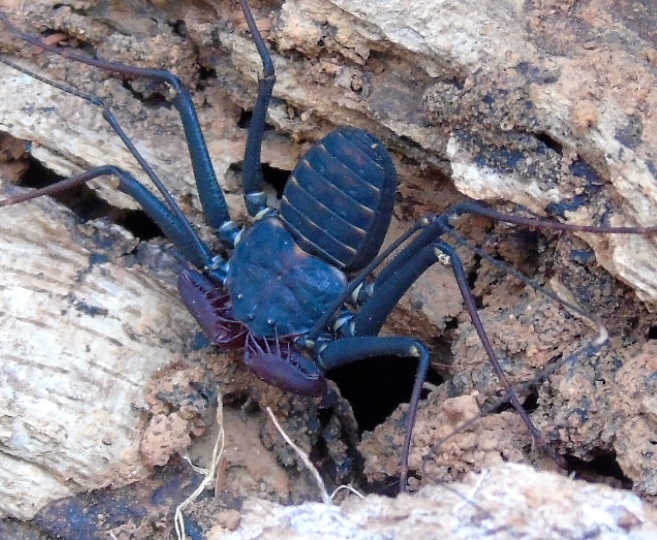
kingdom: Animalia
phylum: Arthropoda
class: Arachnida
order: Amblypygi
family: Phrynidae
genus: Phrynus
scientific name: Phrynus operculatus
